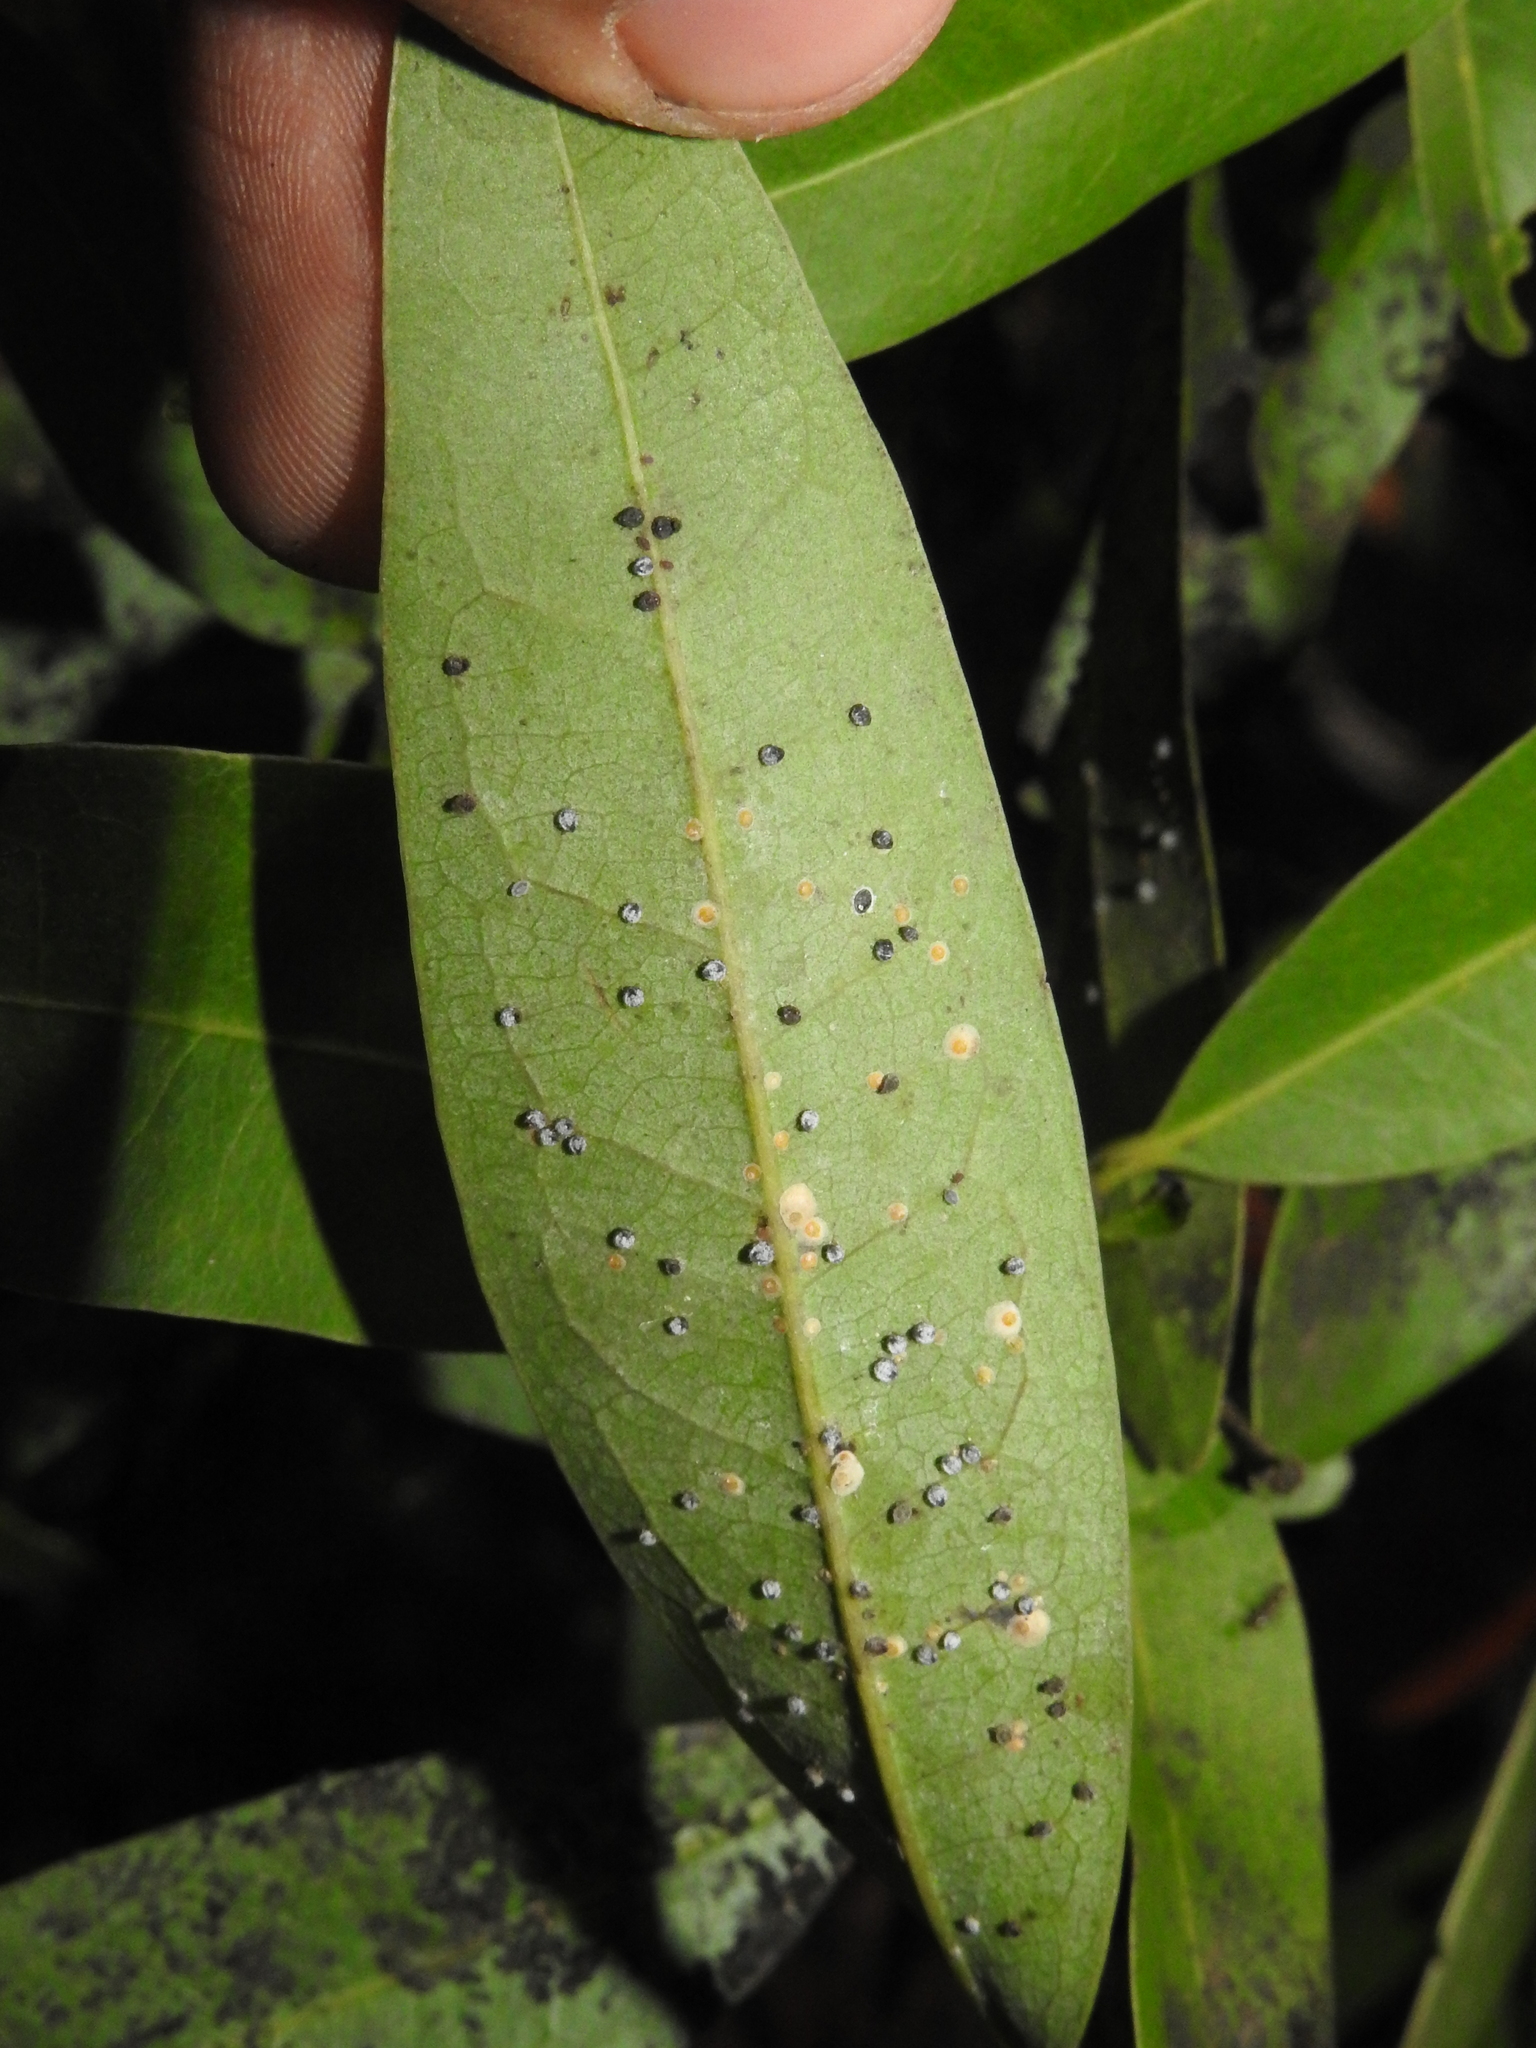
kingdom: Animalia
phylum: Arthropoda
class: Insecta
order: Hemiptera
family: Aphididae
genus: Euthoracaphis
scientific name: Euthoracaphis umbellulariae
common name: Aphid
